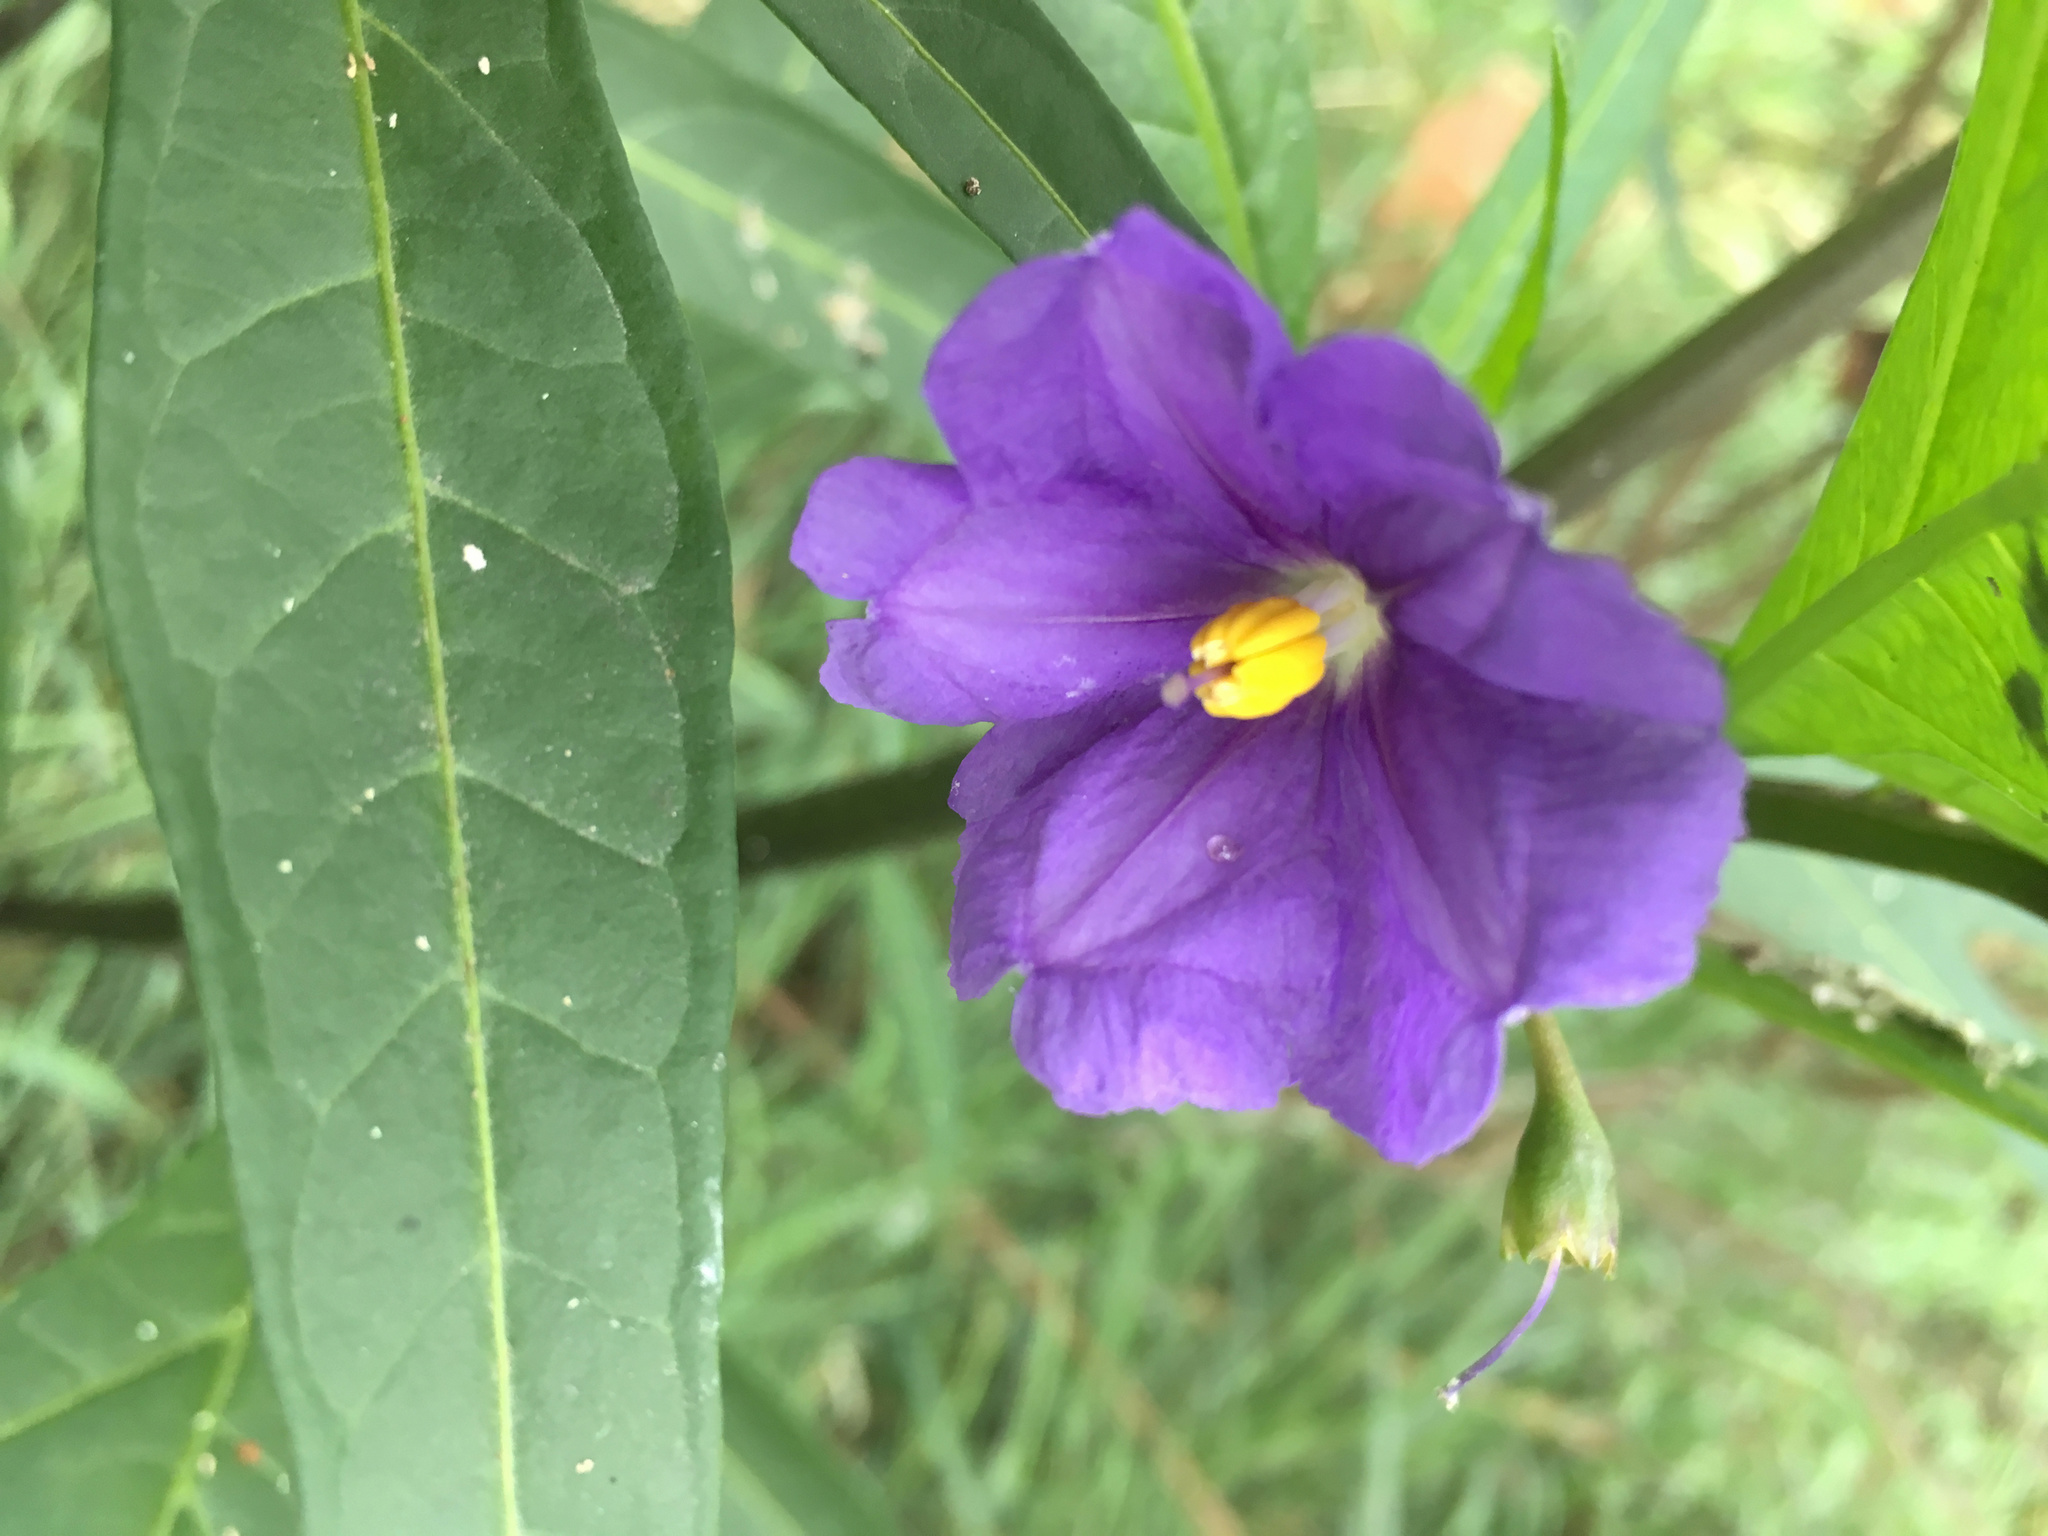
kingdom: Plantae
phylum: Tracheophyta
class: Magnoliopsida
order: Solanales
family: Solanaceae
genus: Solanum
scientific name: Solanum laciniatum
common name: Kangaroo-apple
